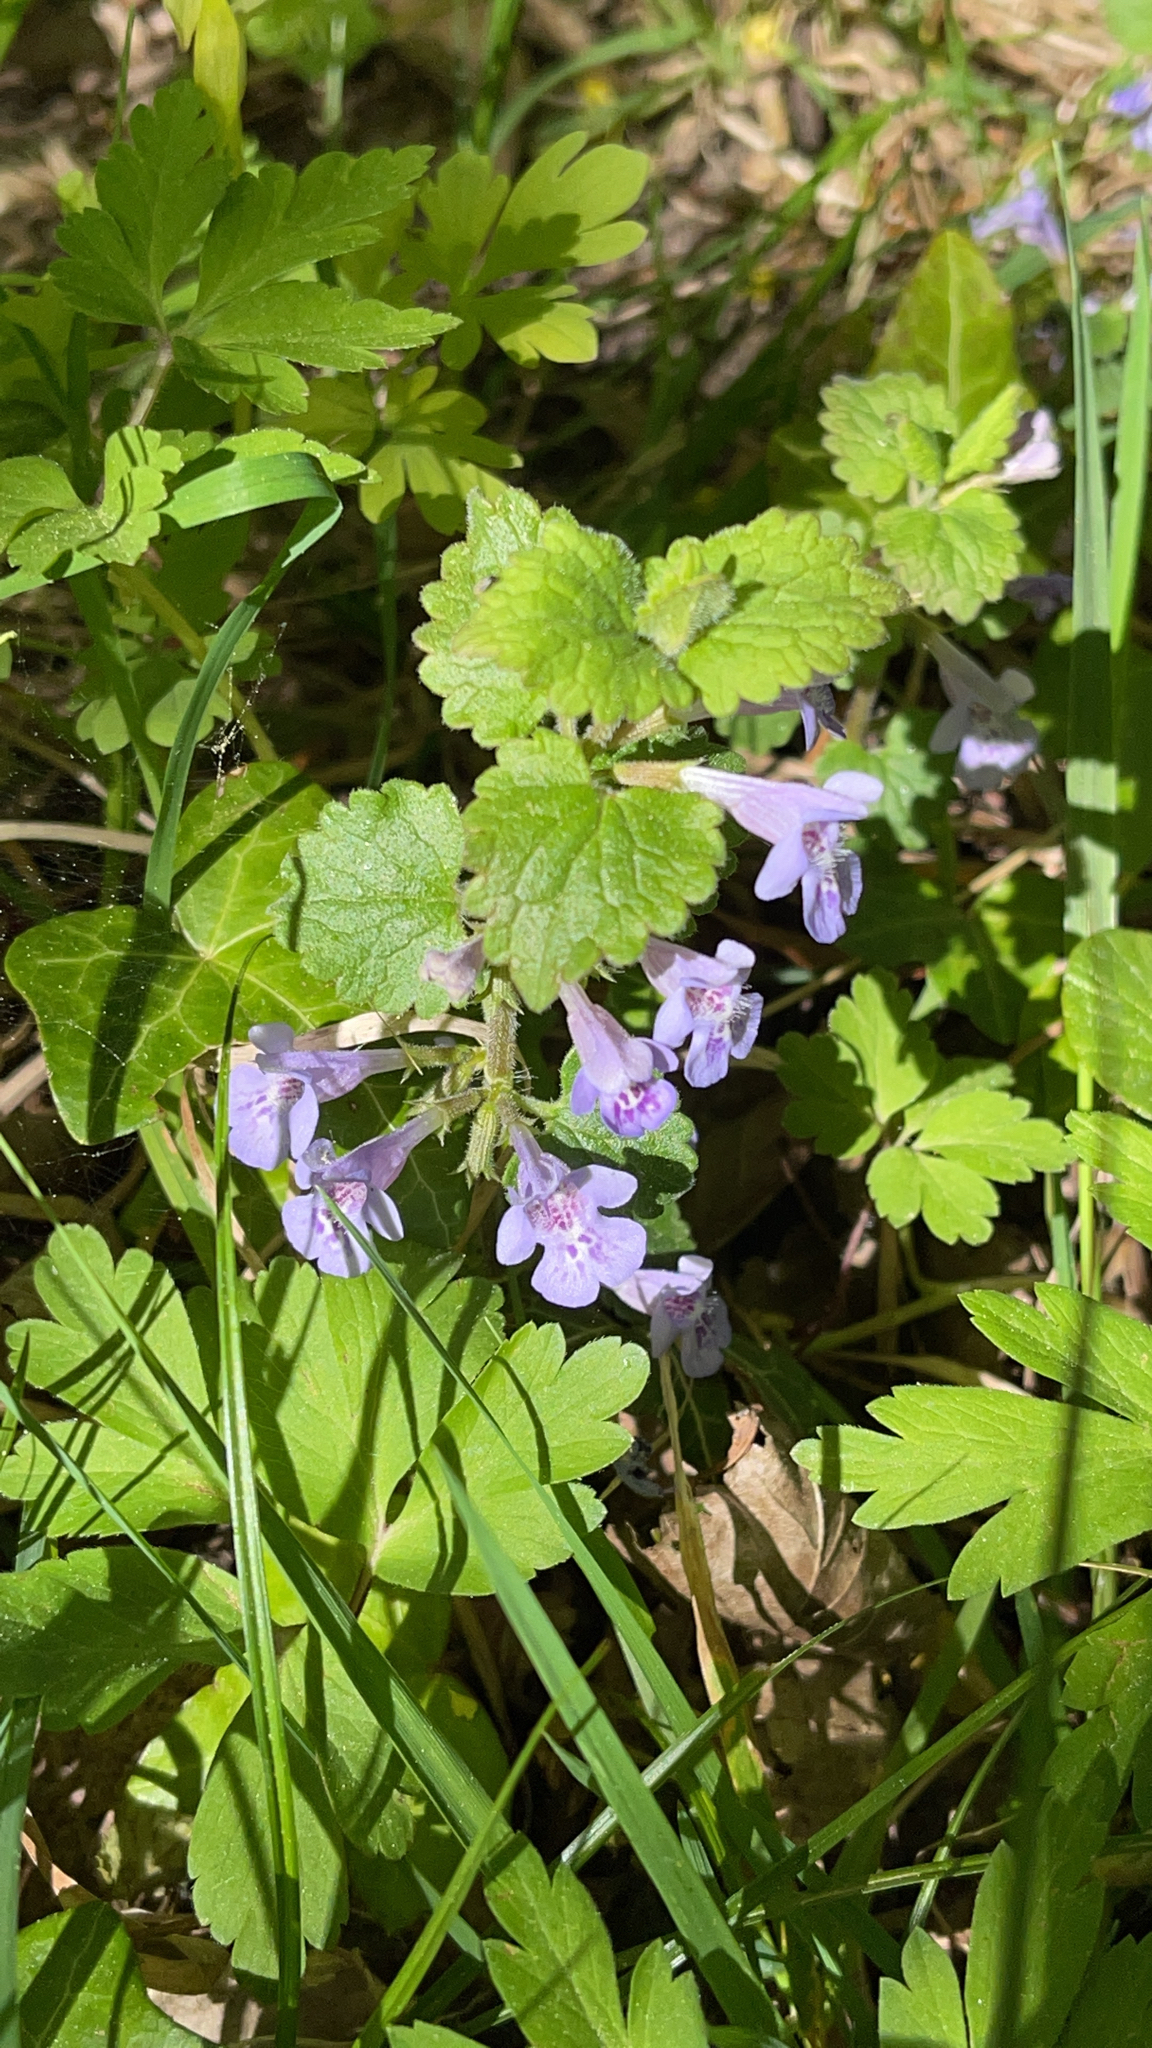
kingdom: Plantae
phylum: Tracheophyta
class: Magnoliopsida
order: Lamiales
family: Lamiaceae
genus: Glechoma
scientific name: Glechoma hederacea
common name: Ground ivy
